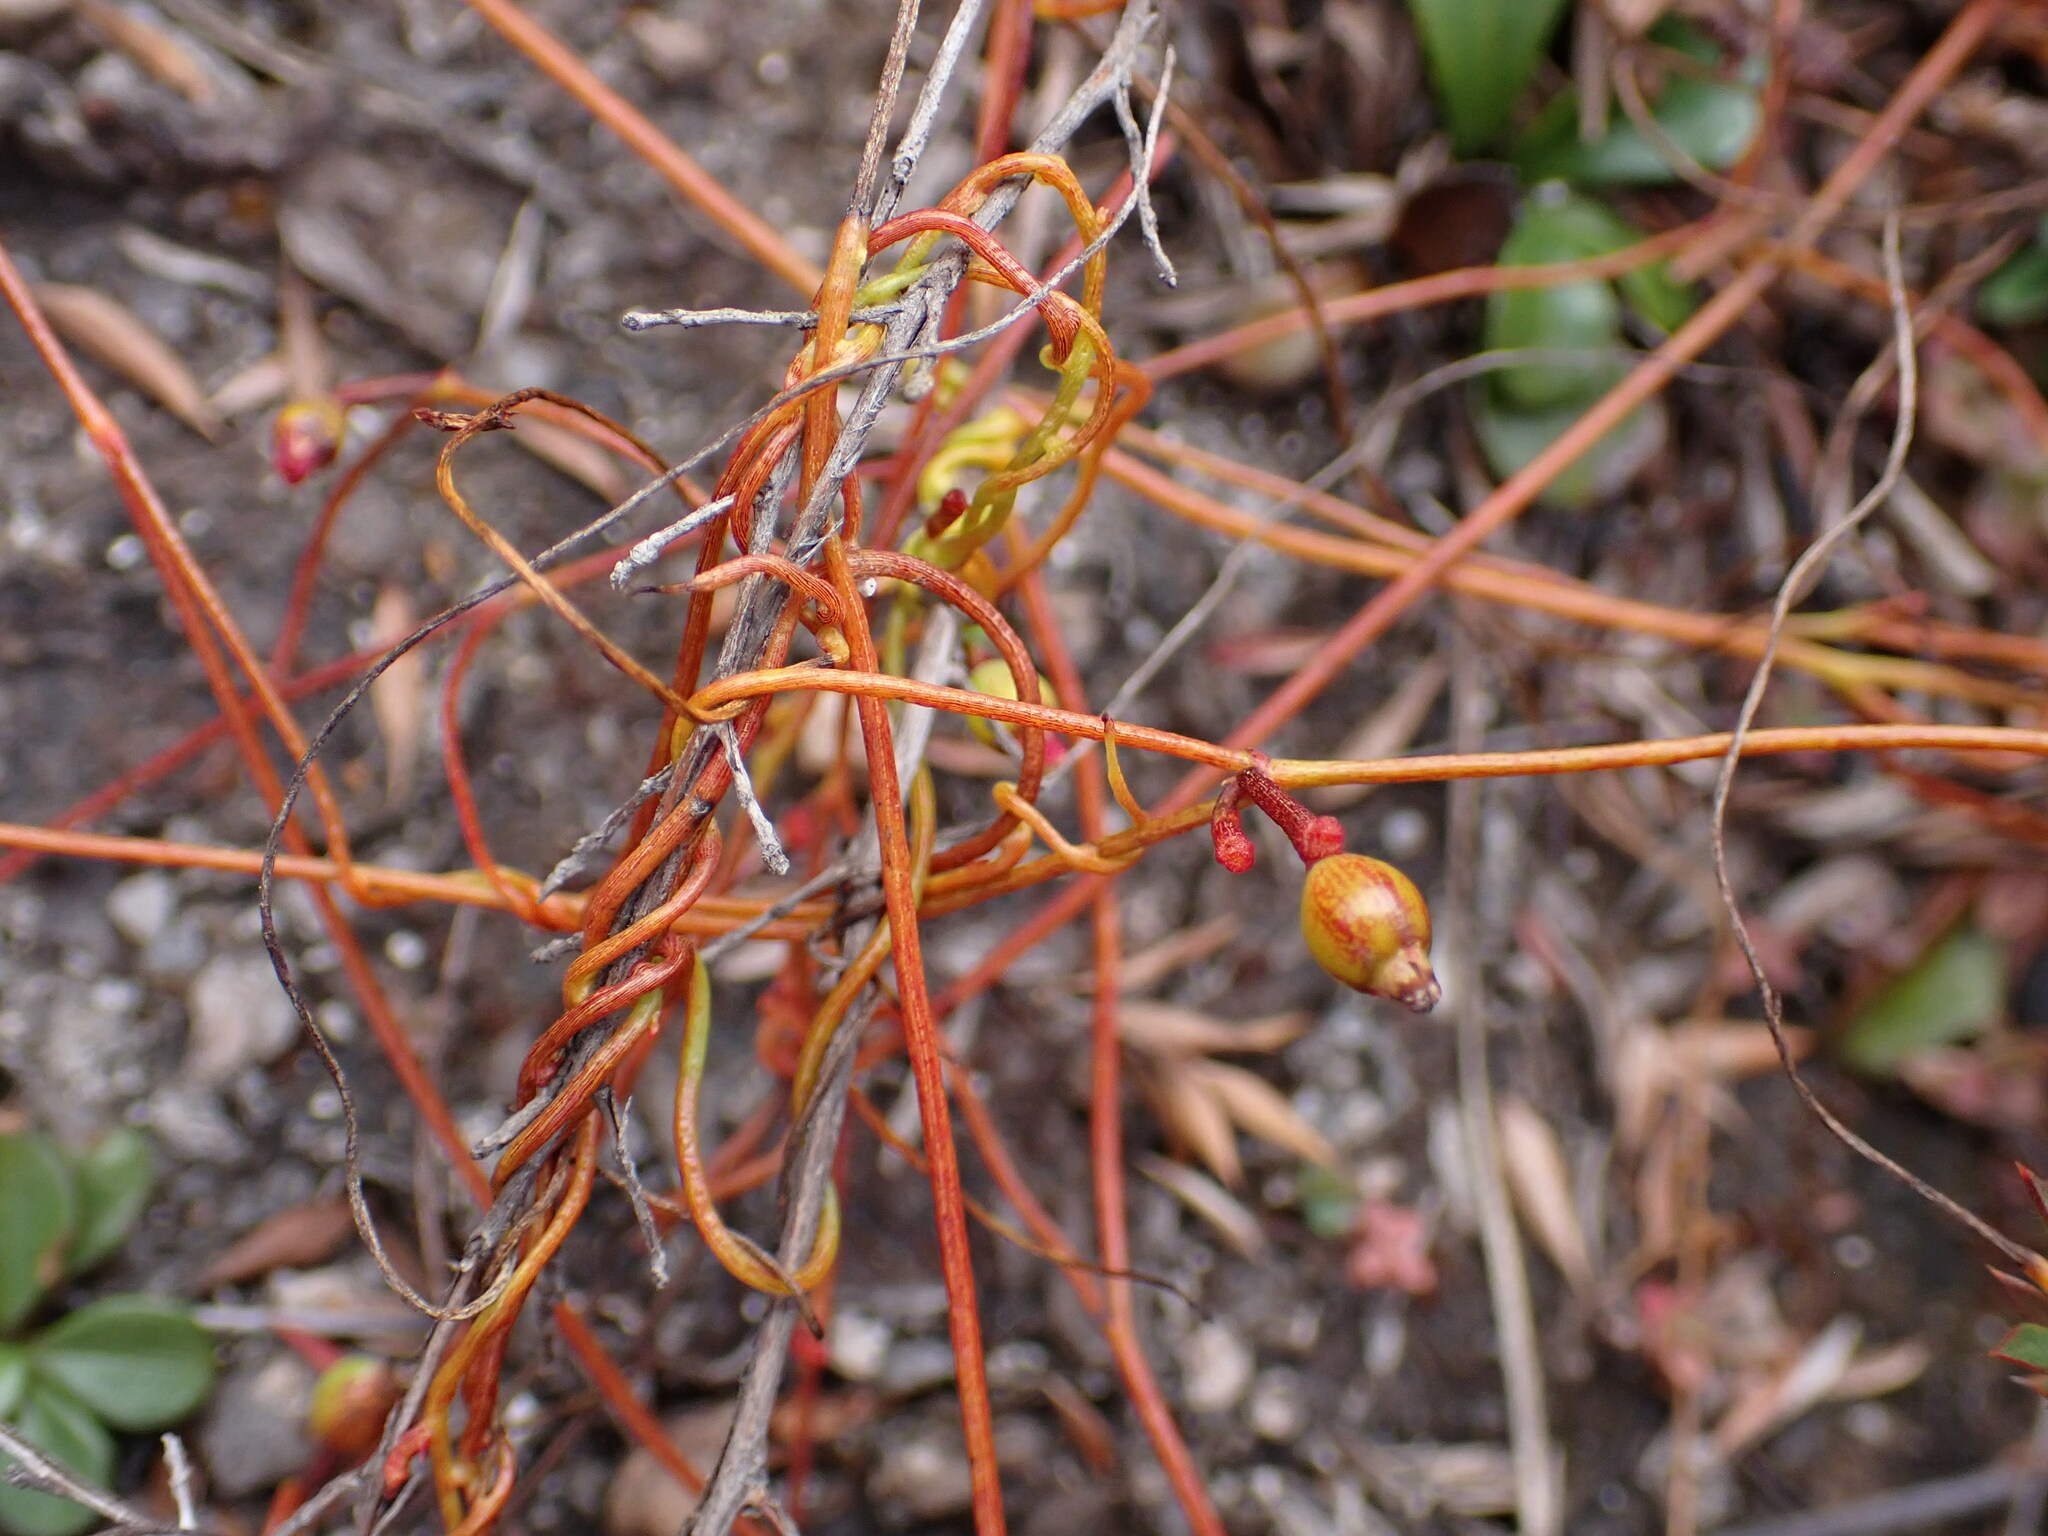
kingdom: Plantae
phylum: Tracheophyta
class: Magnoliopsida
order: Laurales
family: Lauraceae
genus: Cassytha
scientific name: Cassytha glabella
